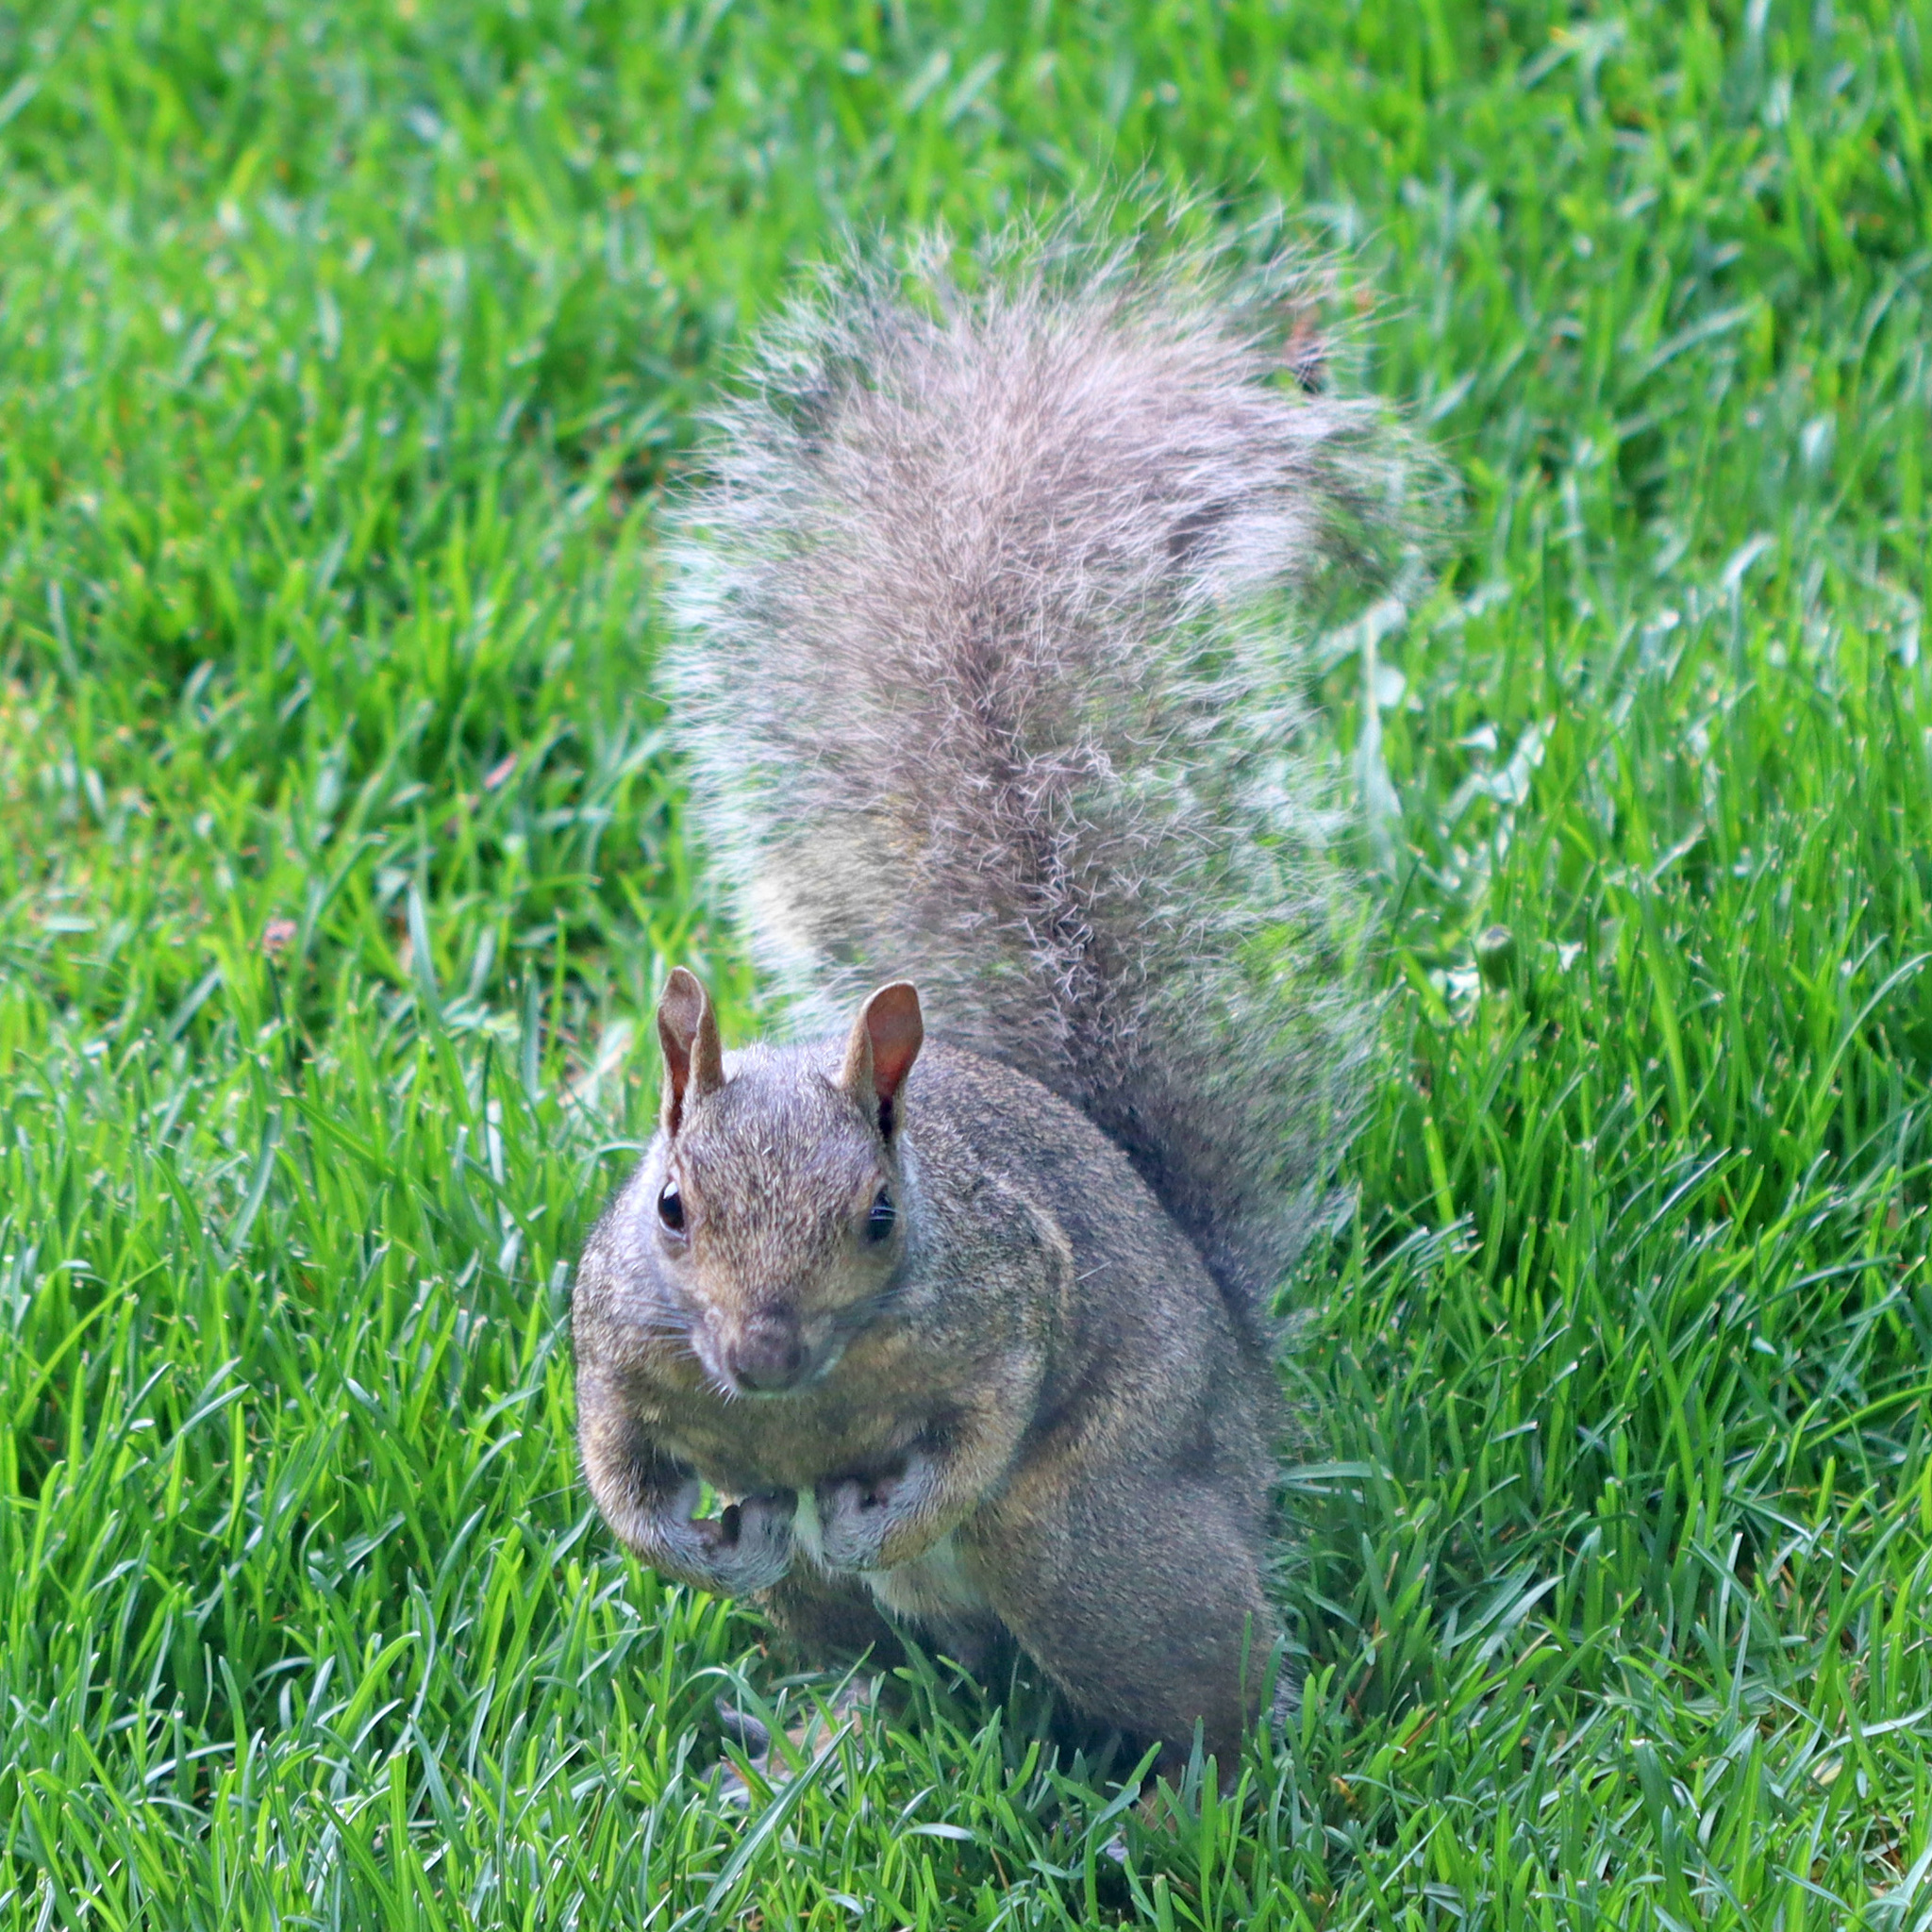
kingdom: Animalia
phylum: Chordata
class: Mammalia
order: Rodentia
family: Sciuridae
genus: Sciurus
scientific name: Sciurus carolinensis
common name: Eastern gray squirrel
